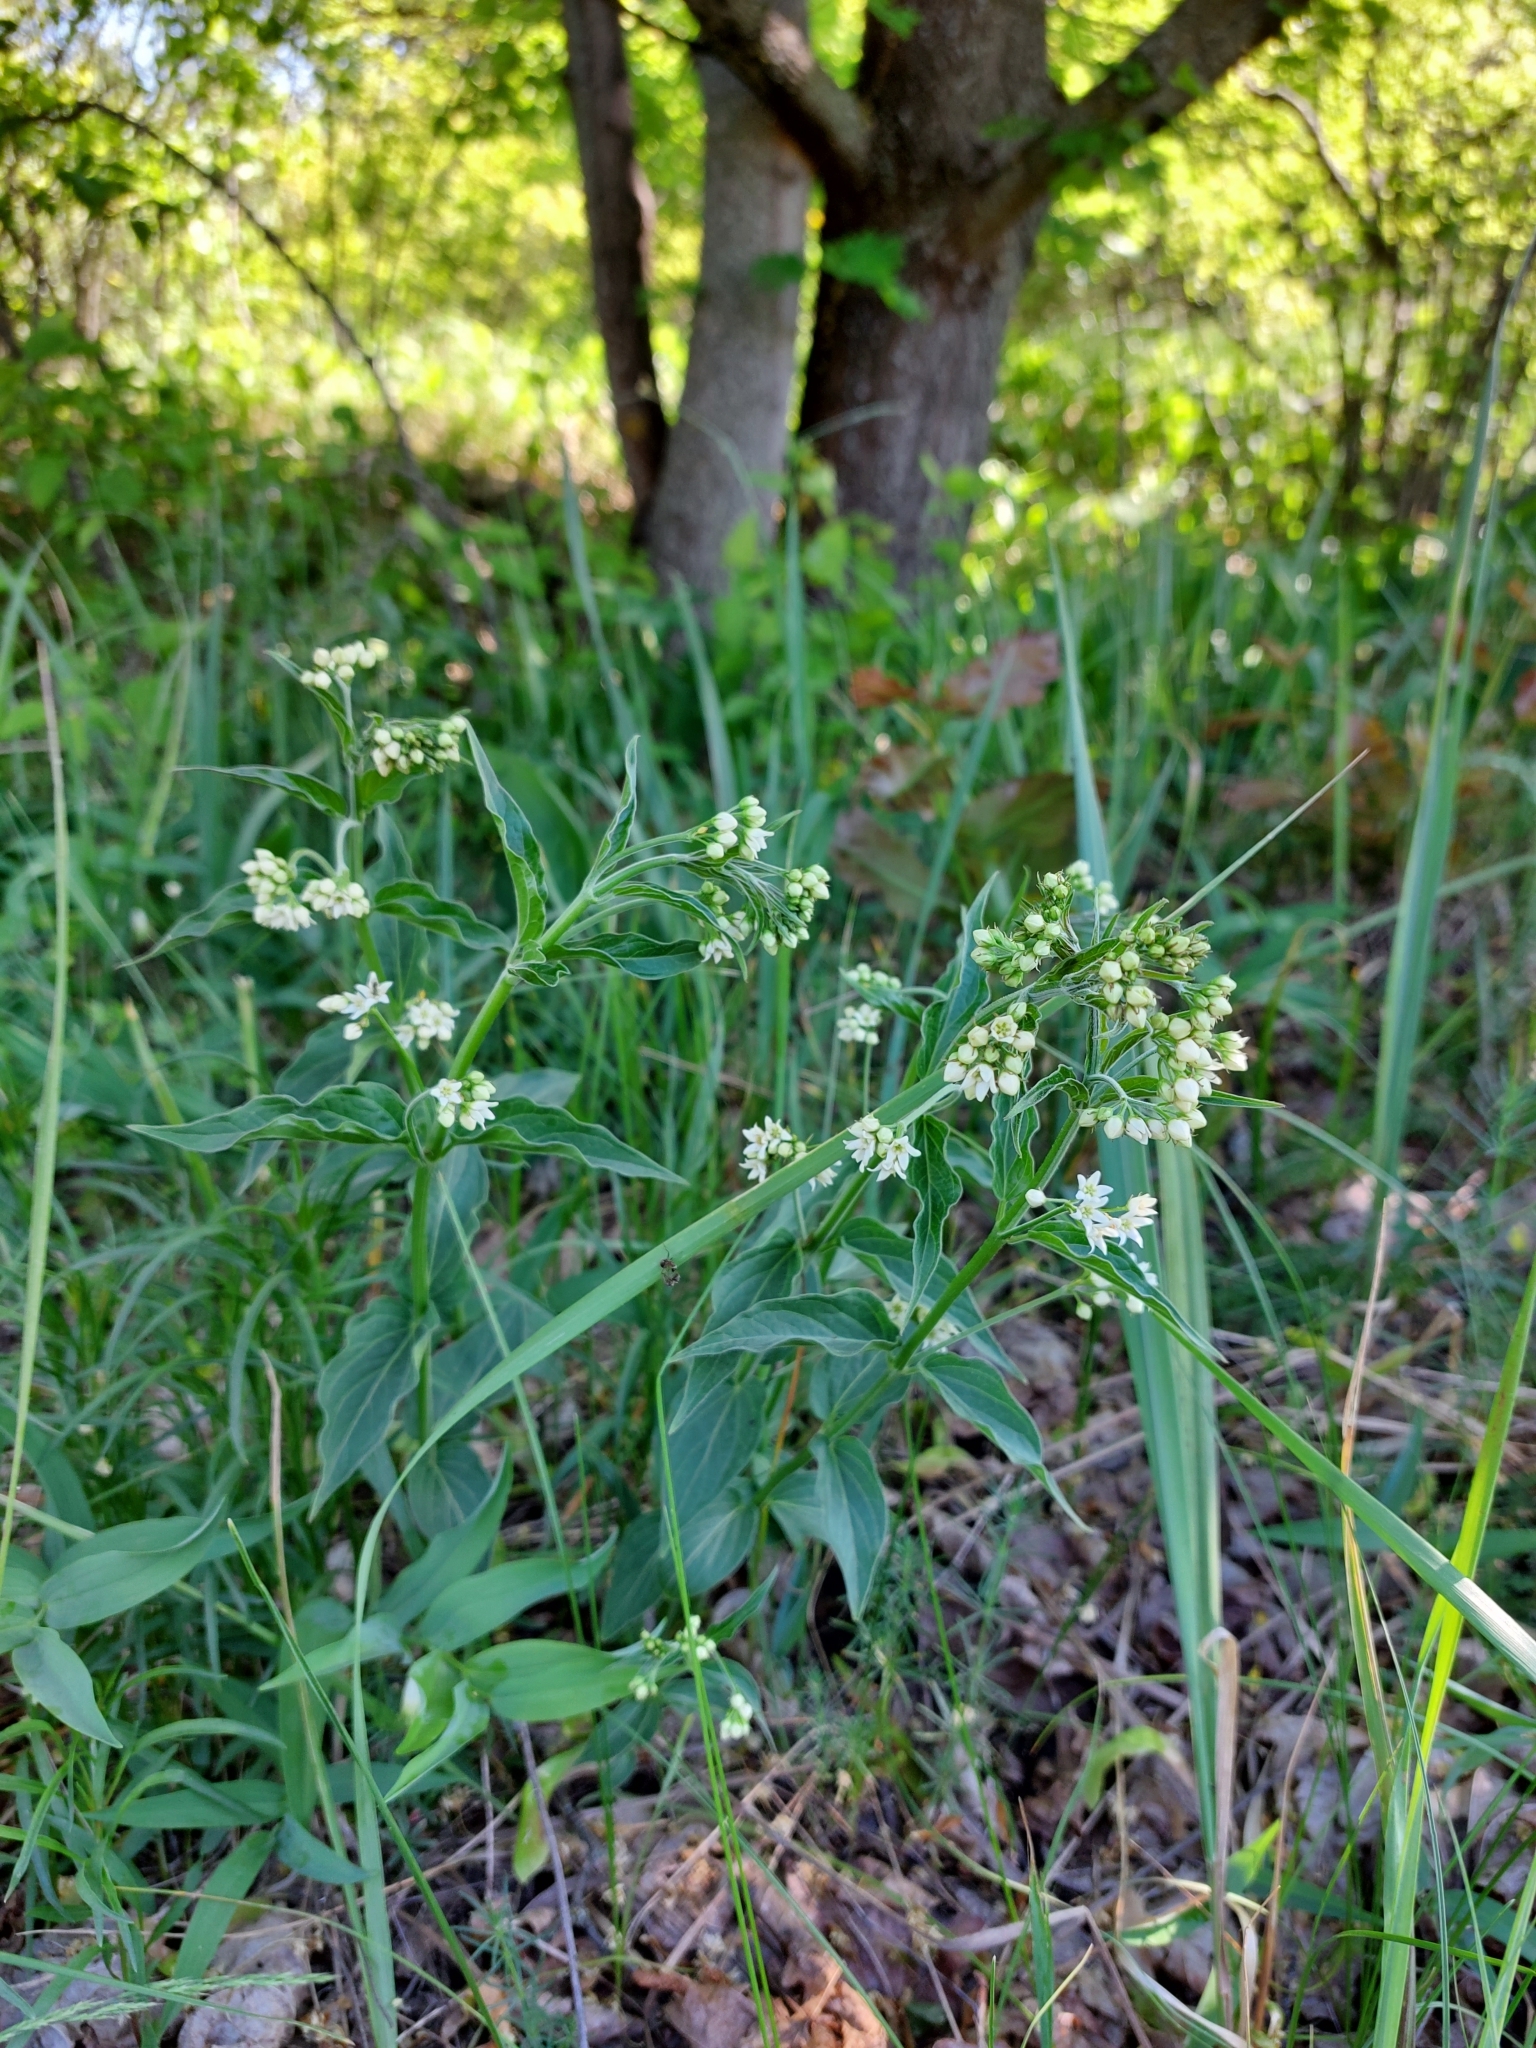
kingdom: Plantae
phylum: Tracheophyta
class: Magnoliopsida
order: Gentianales
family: Apocynaceae
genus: Vincetoxicum
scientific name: Vincetoxicum hirundinaria
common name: White swallowwort
